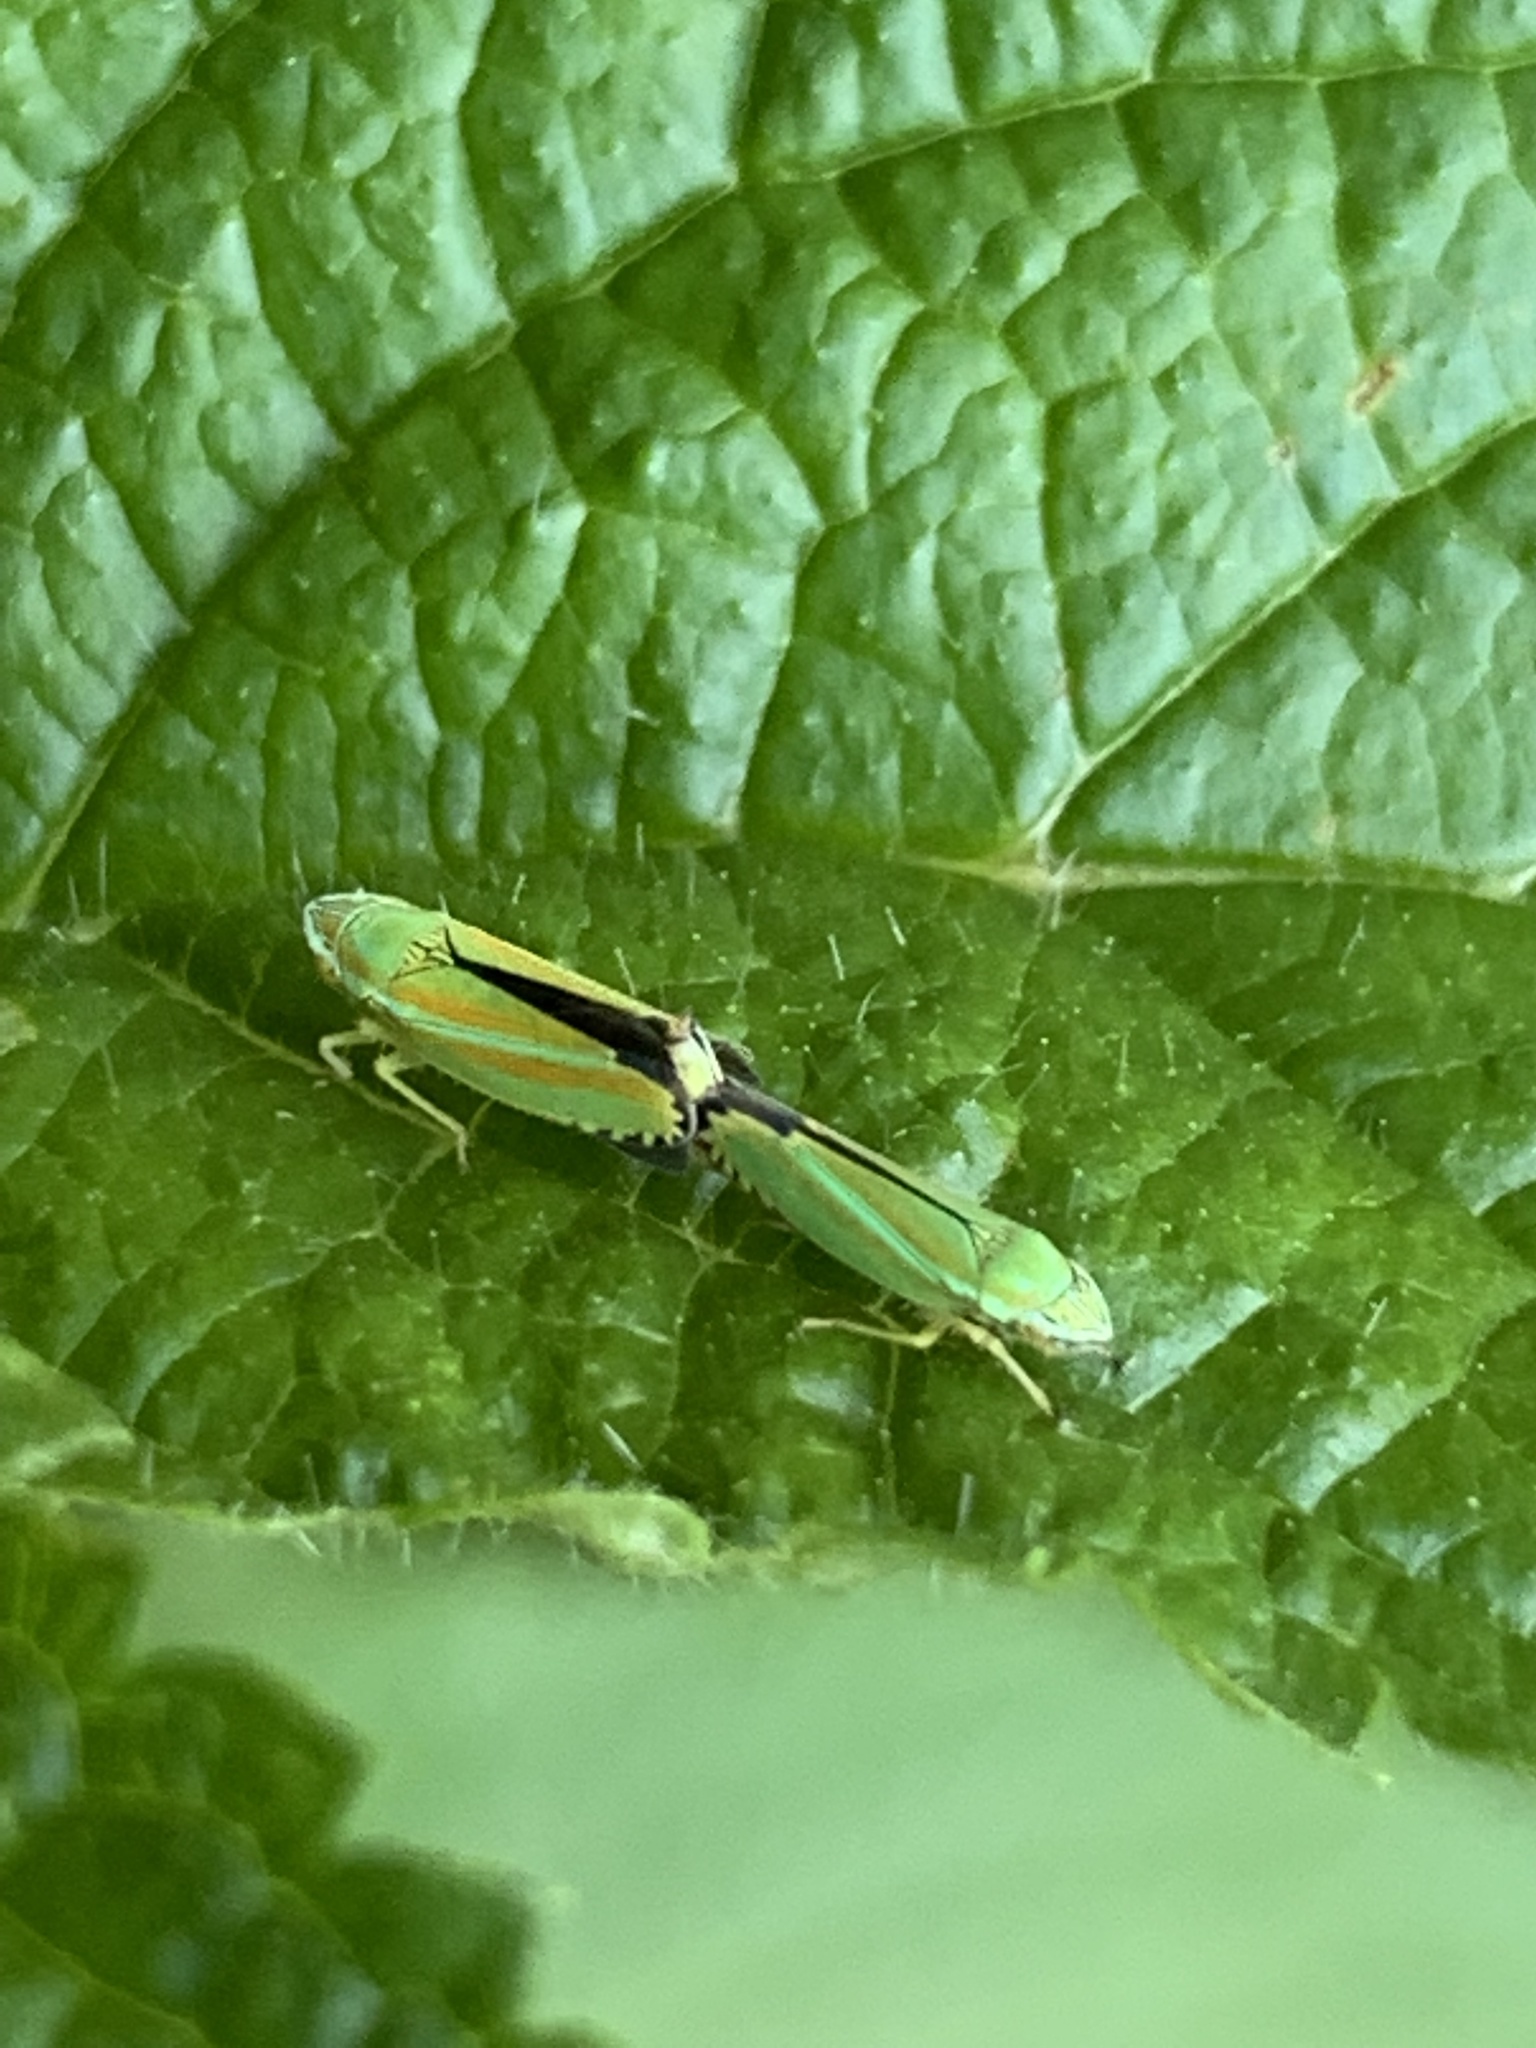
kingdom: Animalia
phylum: Arthropoda
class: Insecta
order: Hemiptera
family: Cicadellidae
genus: Graphocephala
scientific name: Graphocephala versuta
